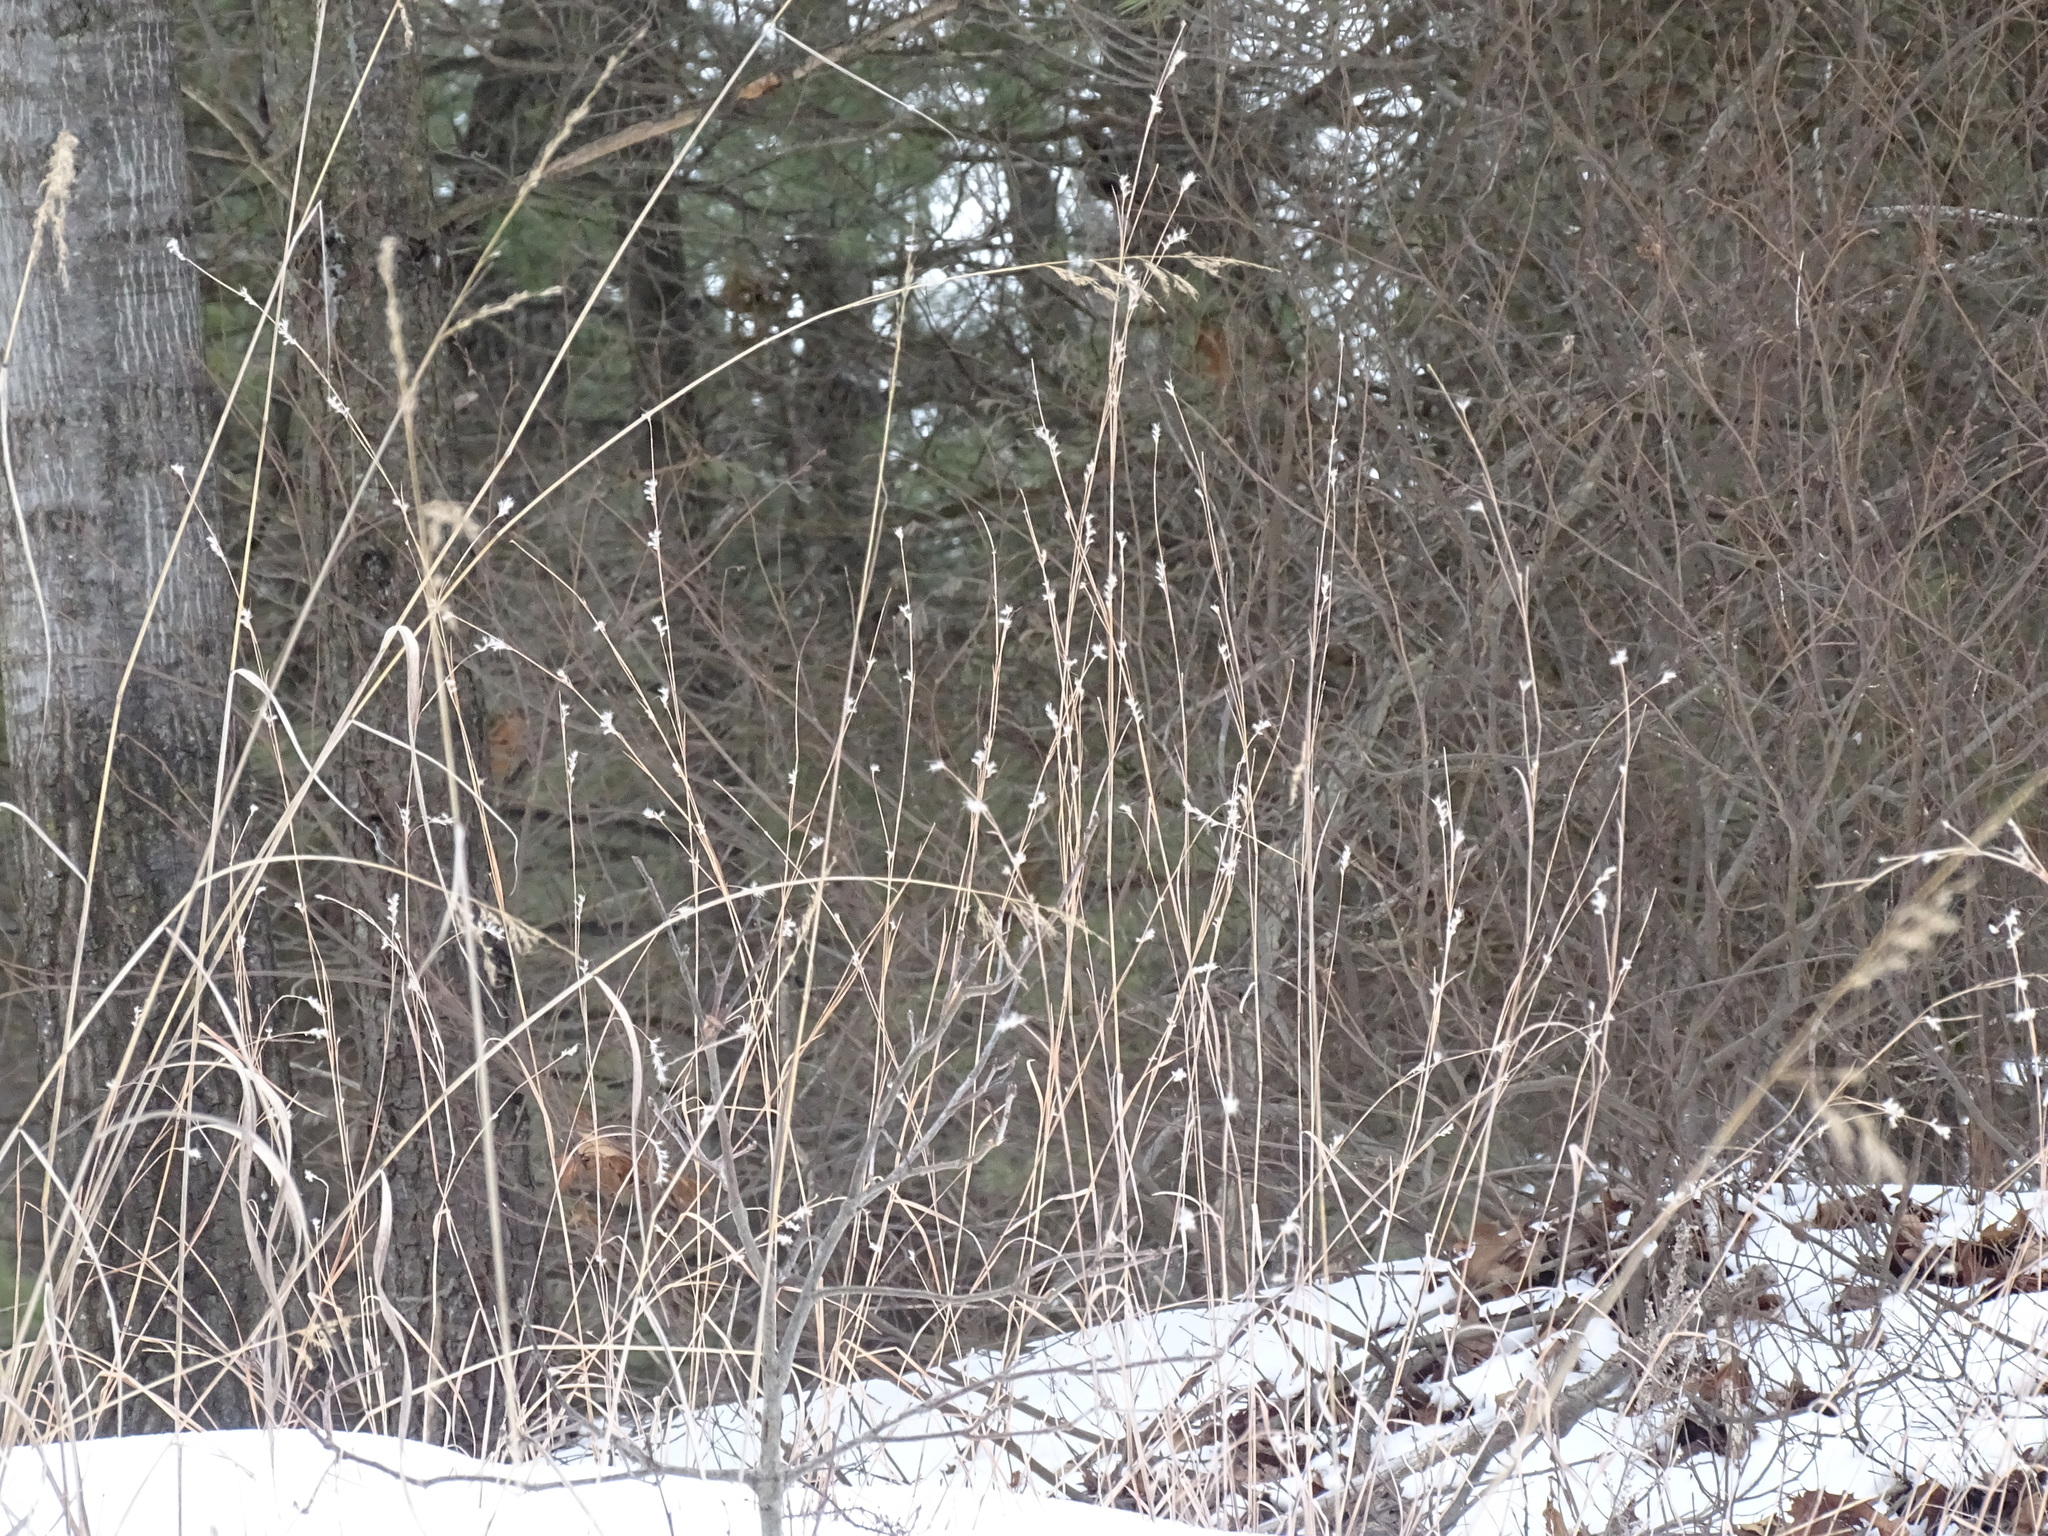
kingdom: Plantae
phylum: Tracheophyta
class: Liliopsida
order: Poales
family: Poaceae
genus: Schizachyrium
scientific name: Schizachyrium scoparium
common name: Little bluestem
